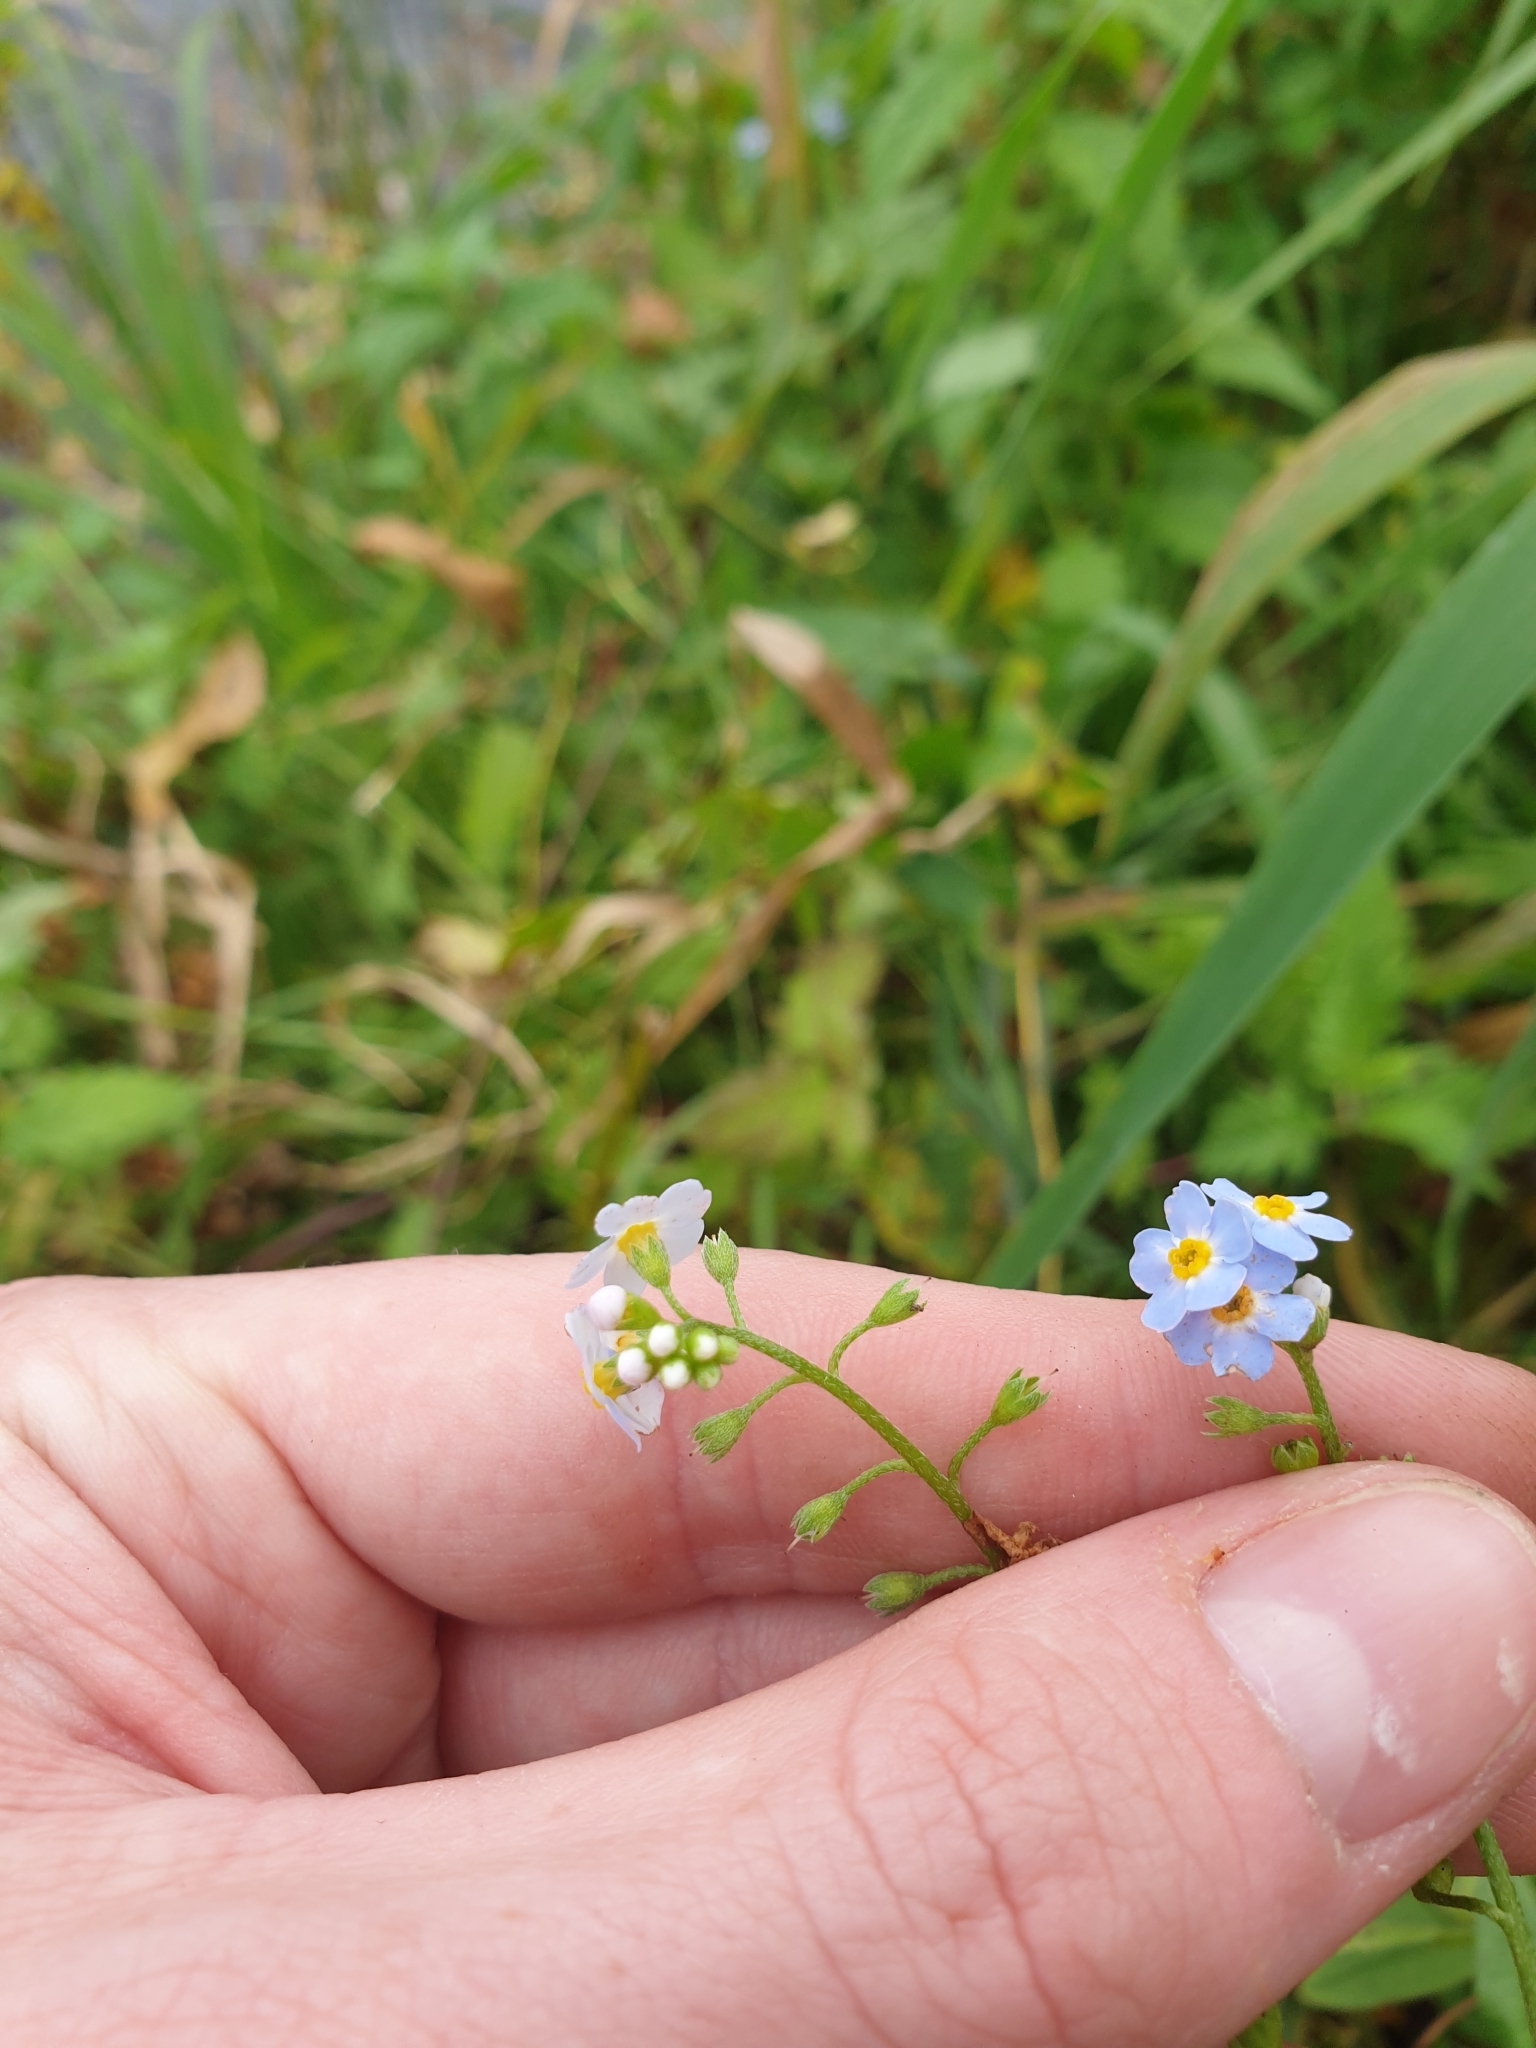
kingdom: Plantae
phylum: Tracheophyta
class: Magnoliopsida
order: Boraginales
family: Boraginaceae
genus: Myosotis
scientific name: Myosotis scorpioides
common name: Water forget-me-not
